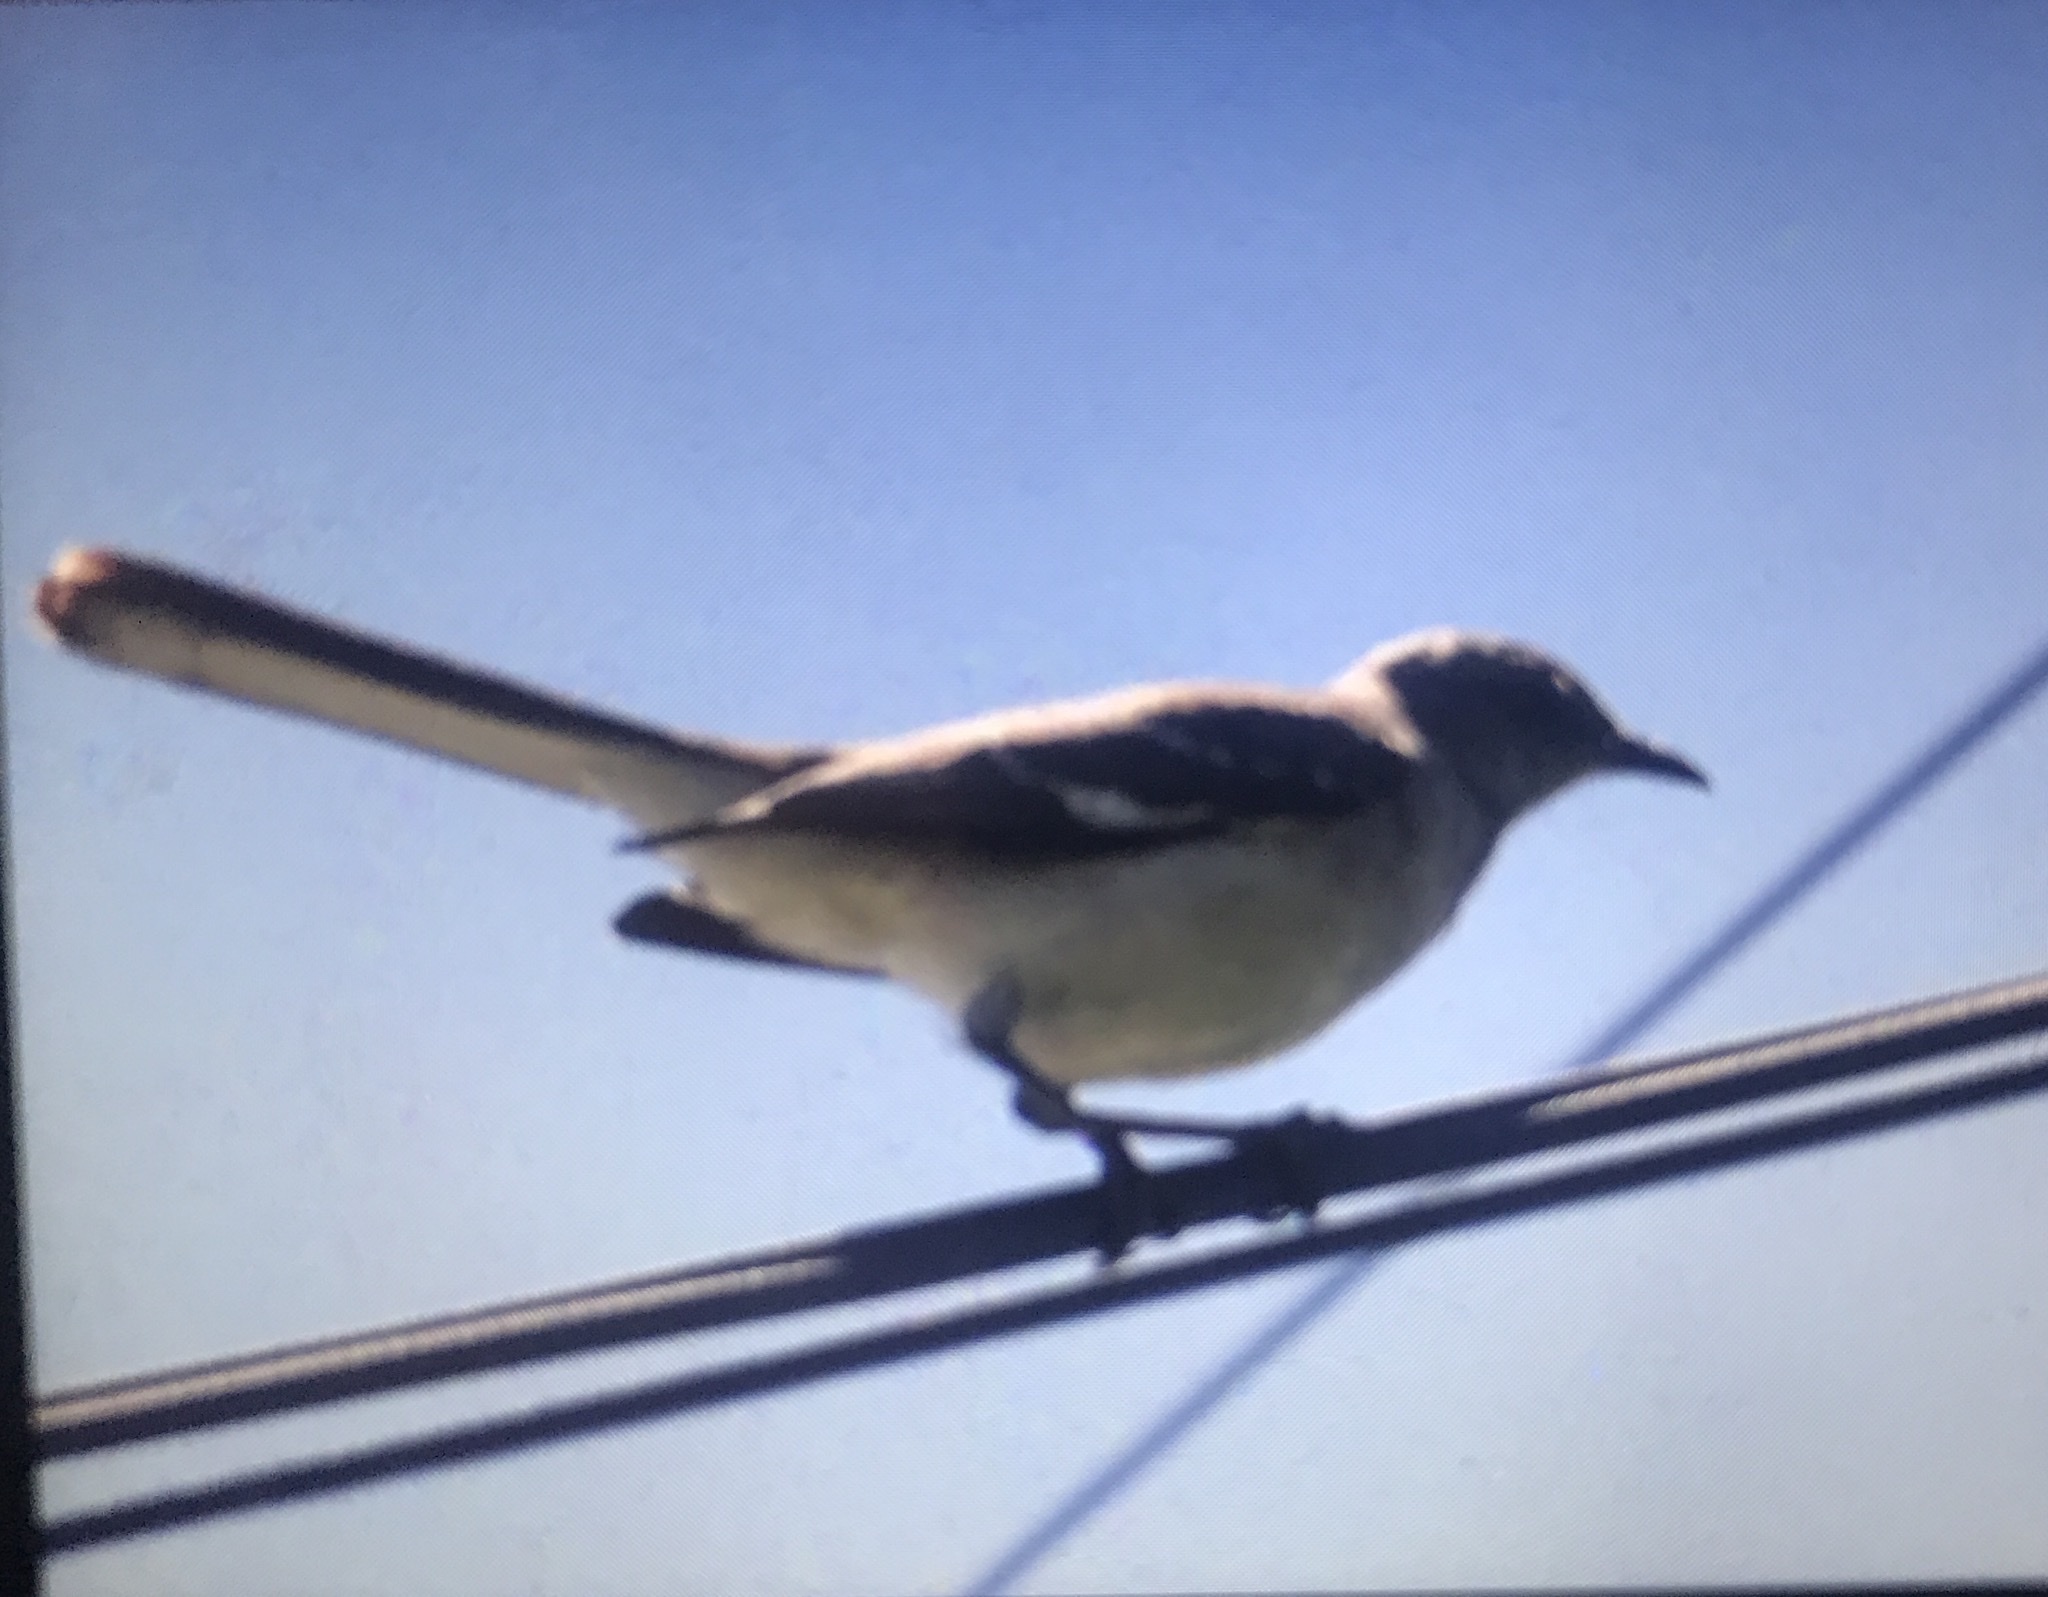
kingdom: Animalia
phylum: Chordata
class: Aves
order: Passeriformes
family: Mimidae
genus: Mimus
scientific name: Mimus polyglottos
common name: Northern mockingbird
